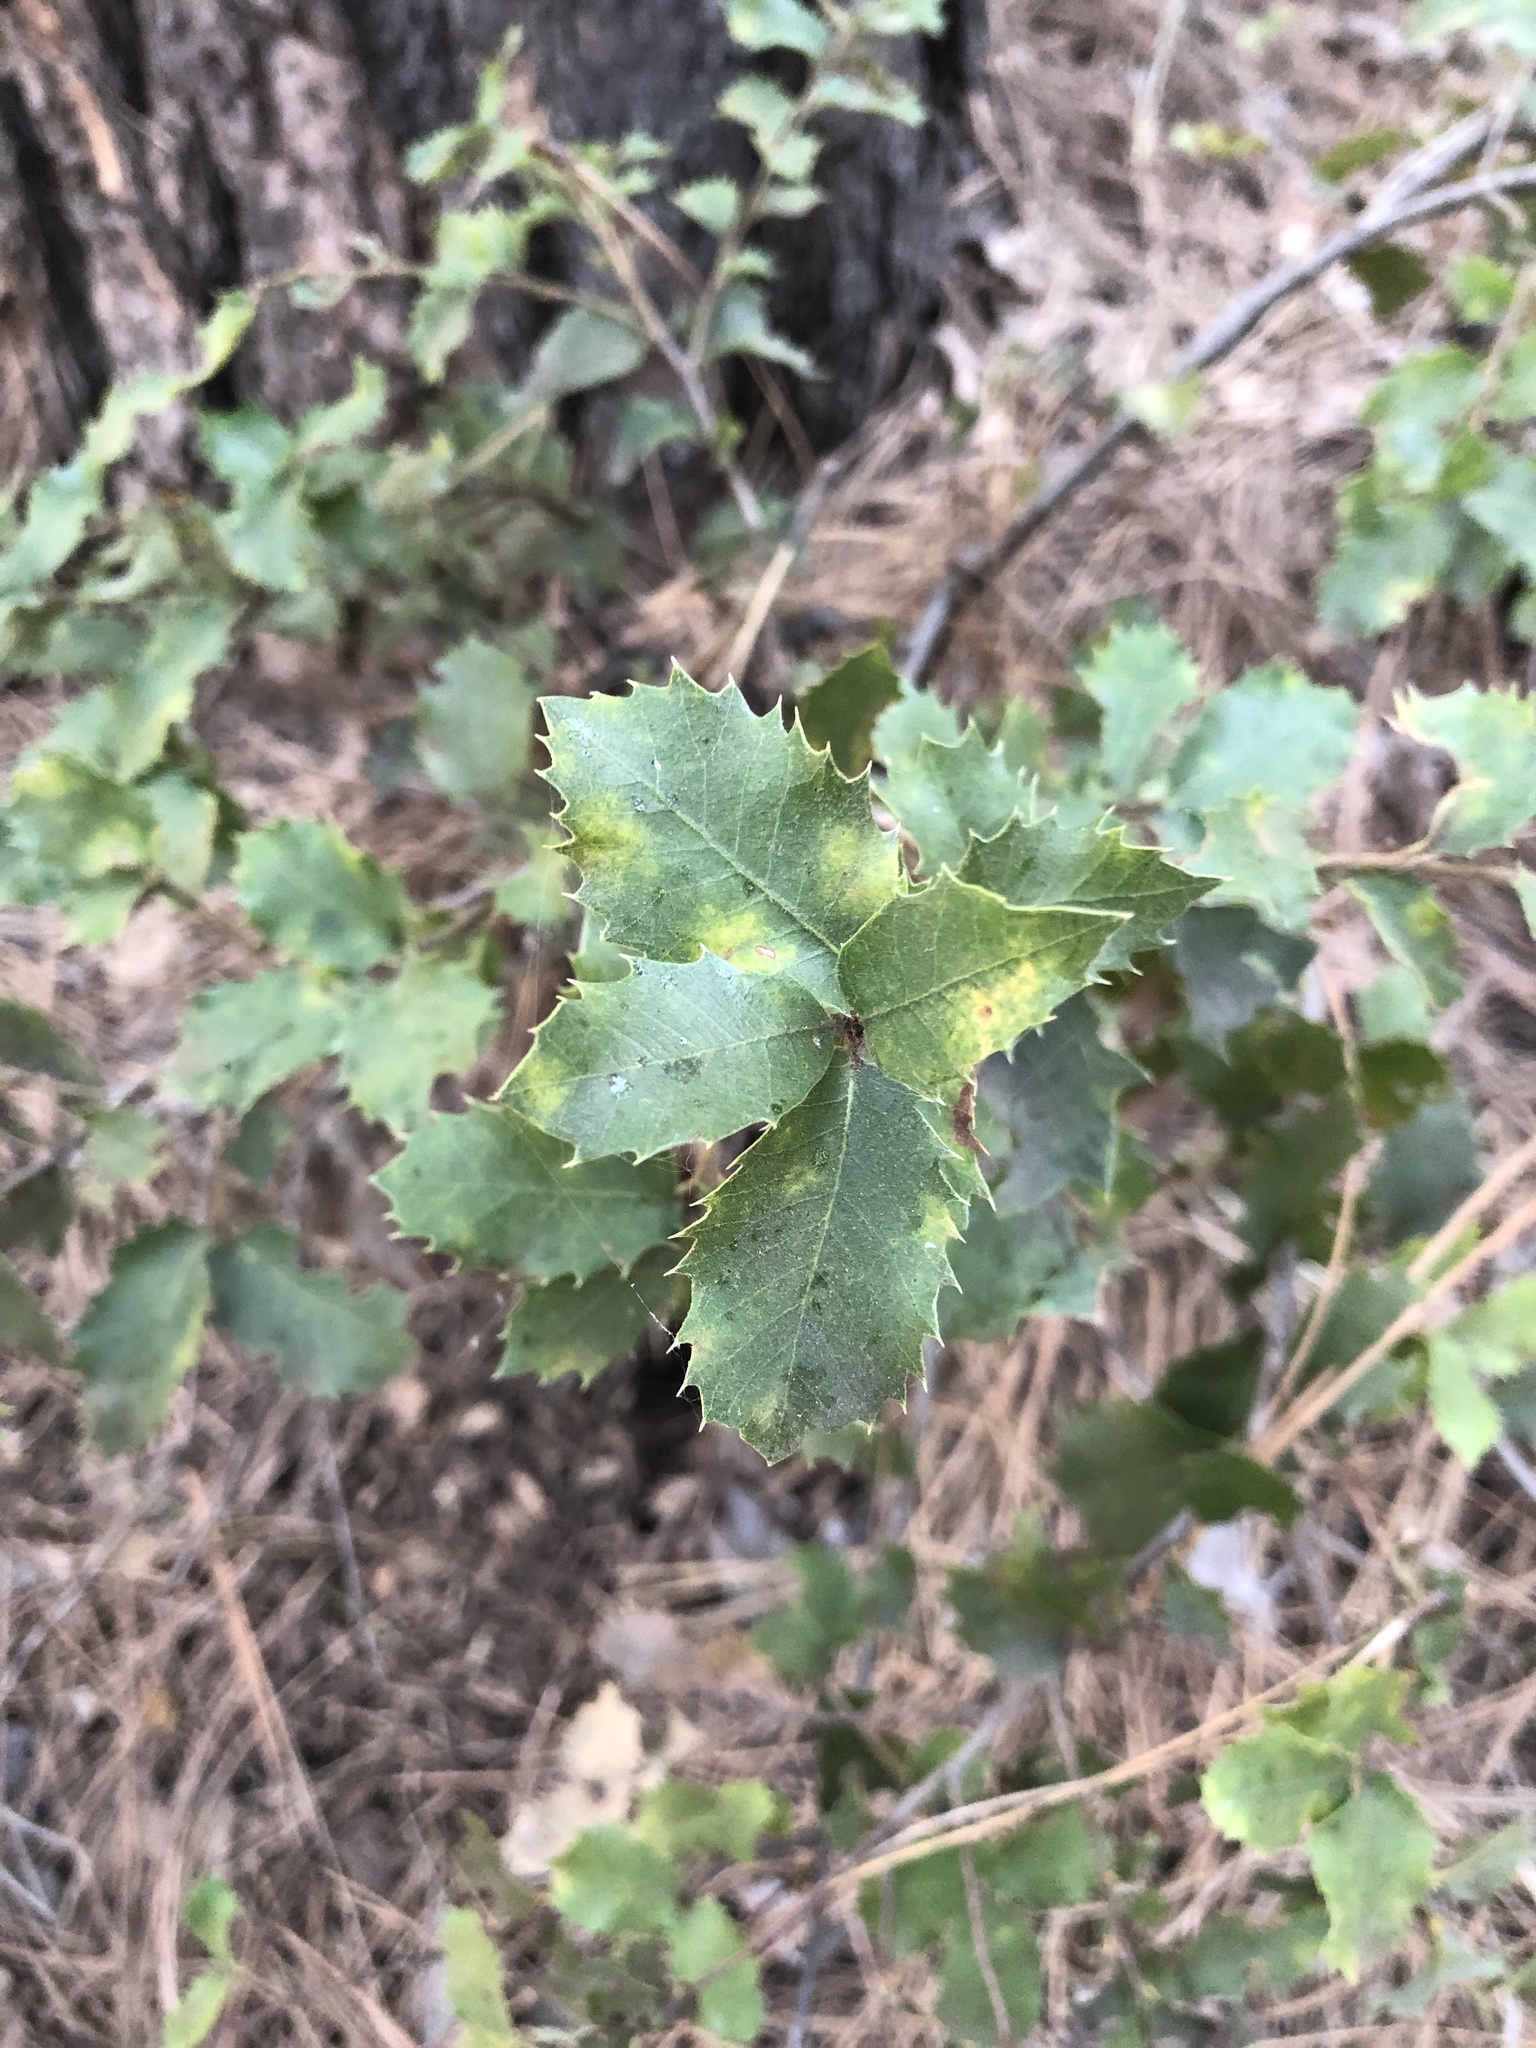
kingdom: Plantae
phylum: Tracheophyta
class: Magnoliopsida
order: Fagales
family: Fagaceae
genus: Quercus
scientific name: Quercus chrysolepis
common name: Canyon live oak
